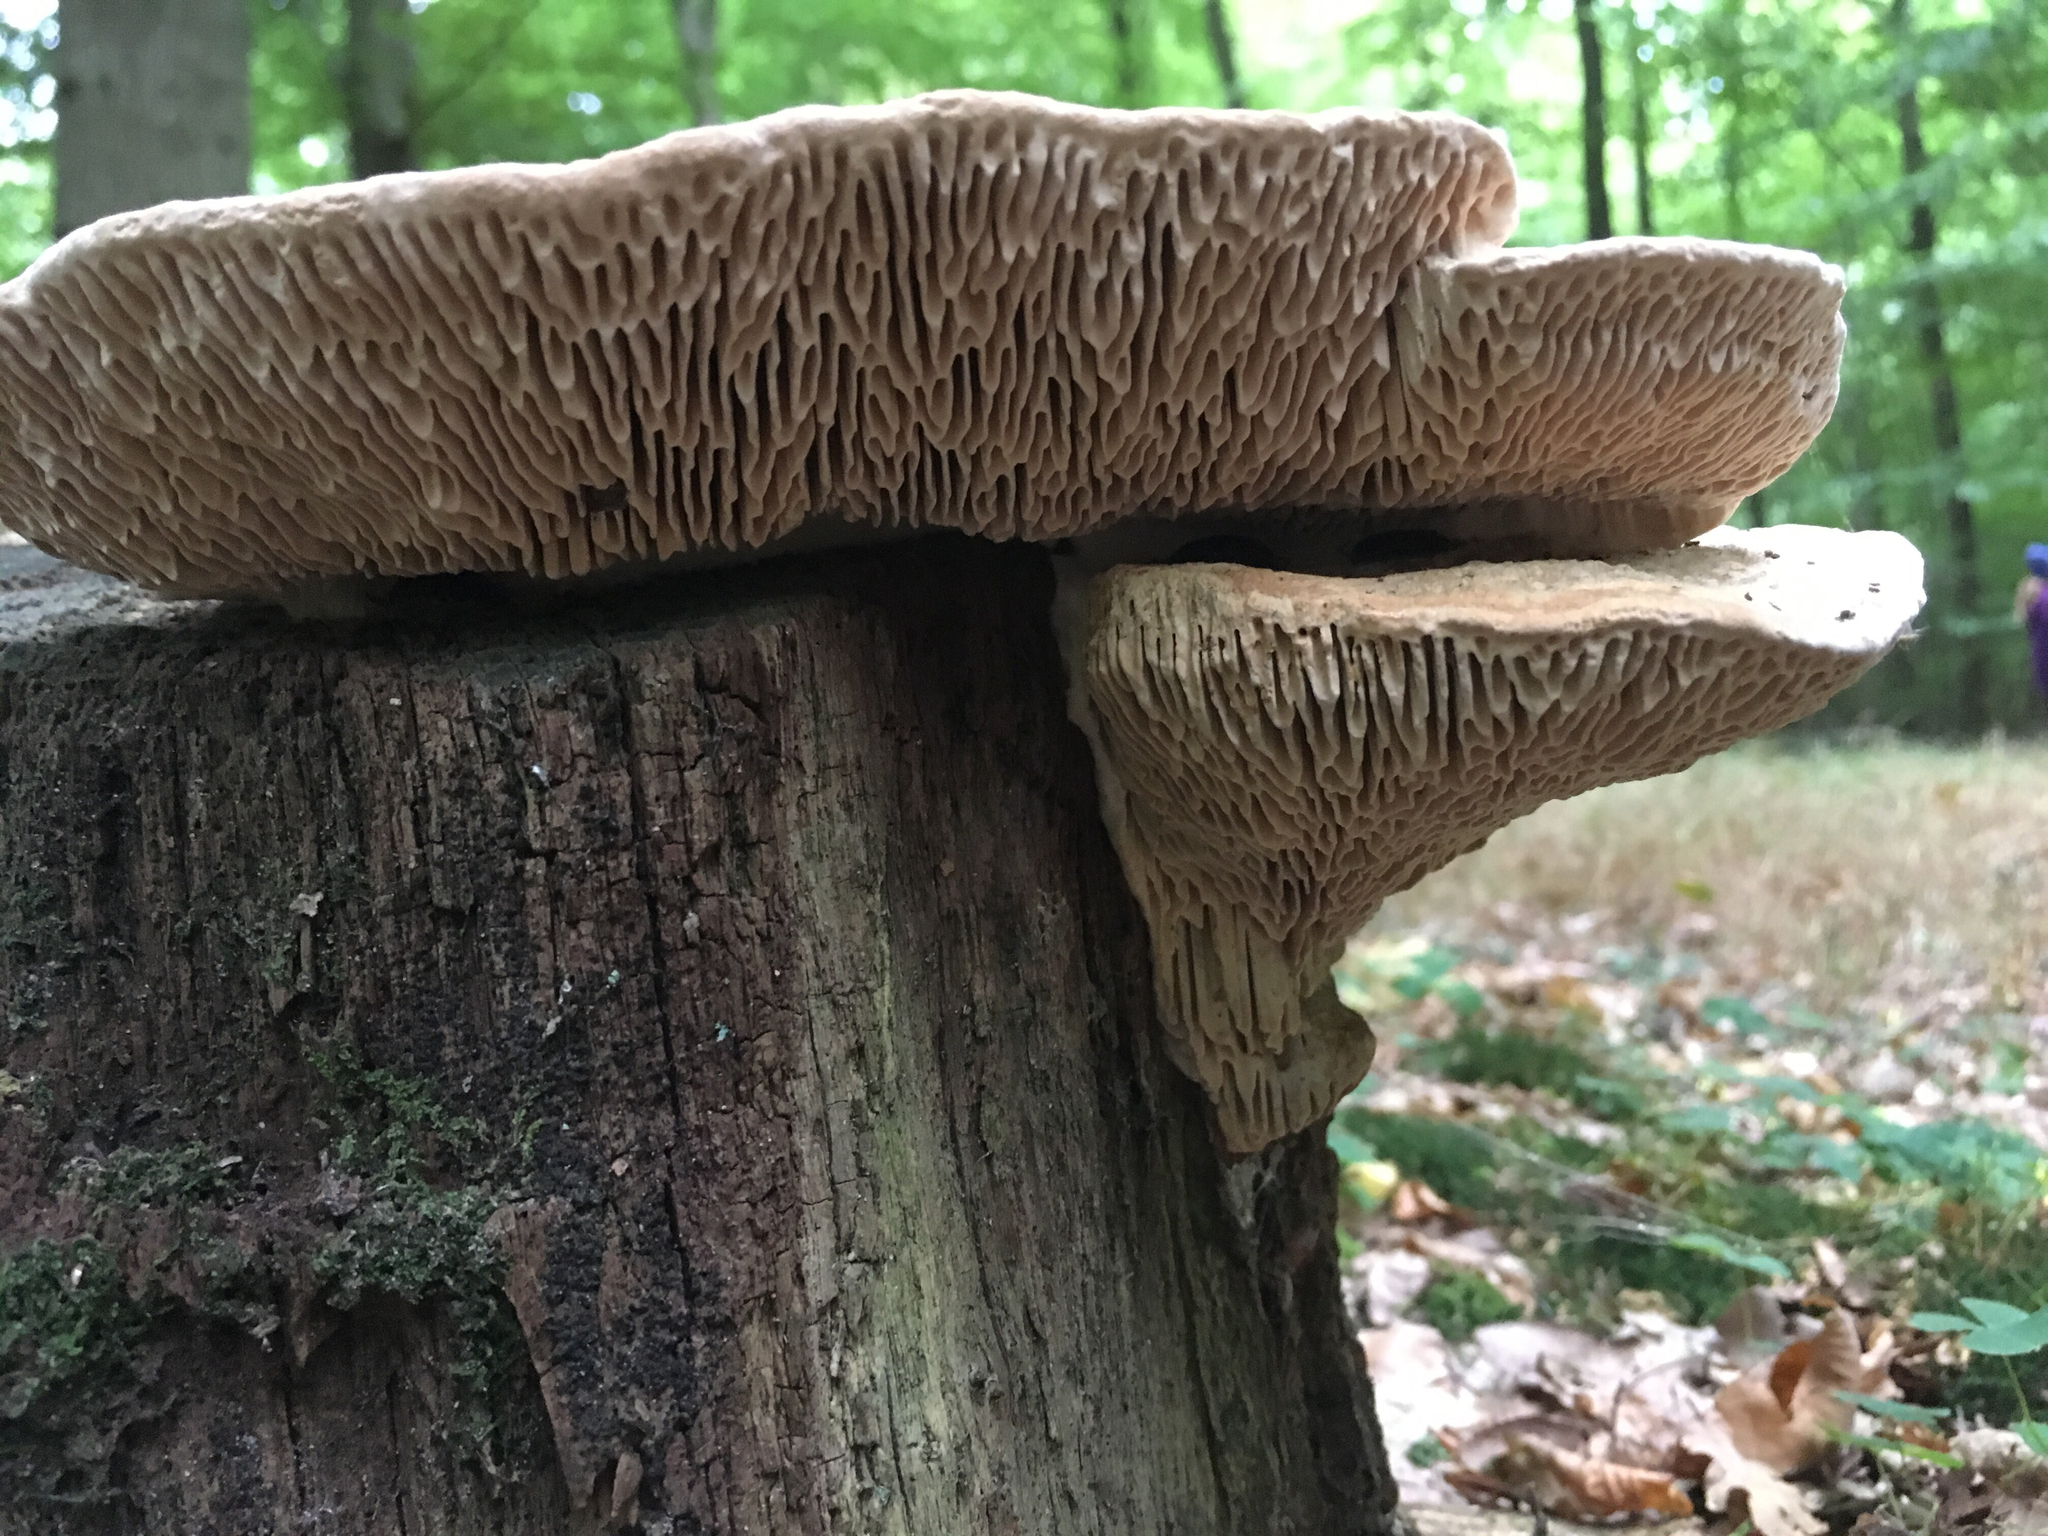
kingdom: Fungi
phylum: Basidiomycota
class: Agaricomycetes
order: Polyporales
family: Fomitopsidaceae
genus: Fomitopsis
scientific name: Fomitopsis
